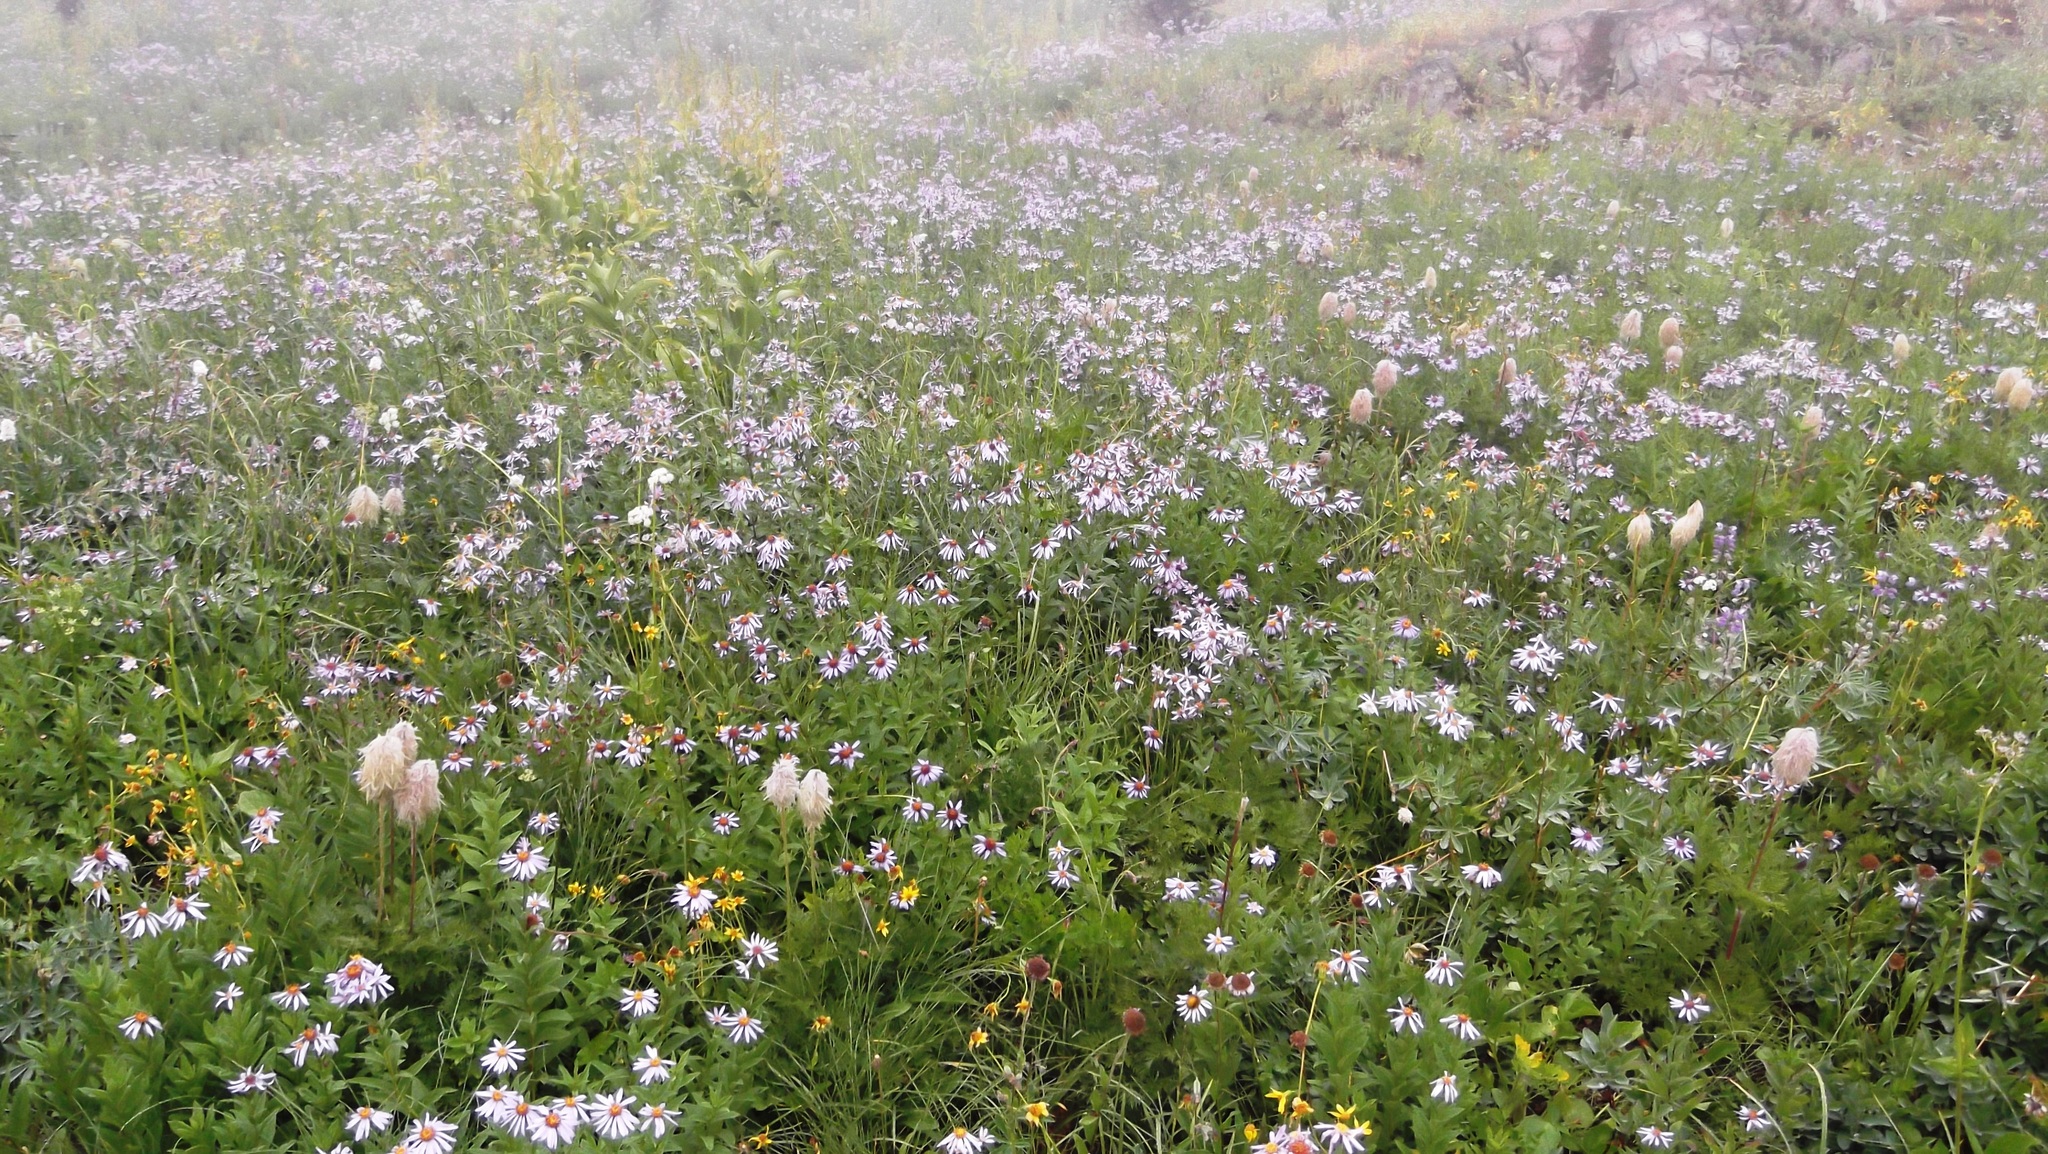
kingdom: Plantae
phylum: Tracheophyta
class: Magnoliopsida
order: Asterales
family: Asteraceae
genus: Eucephalus
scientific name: Eucephalus ledophyllus
